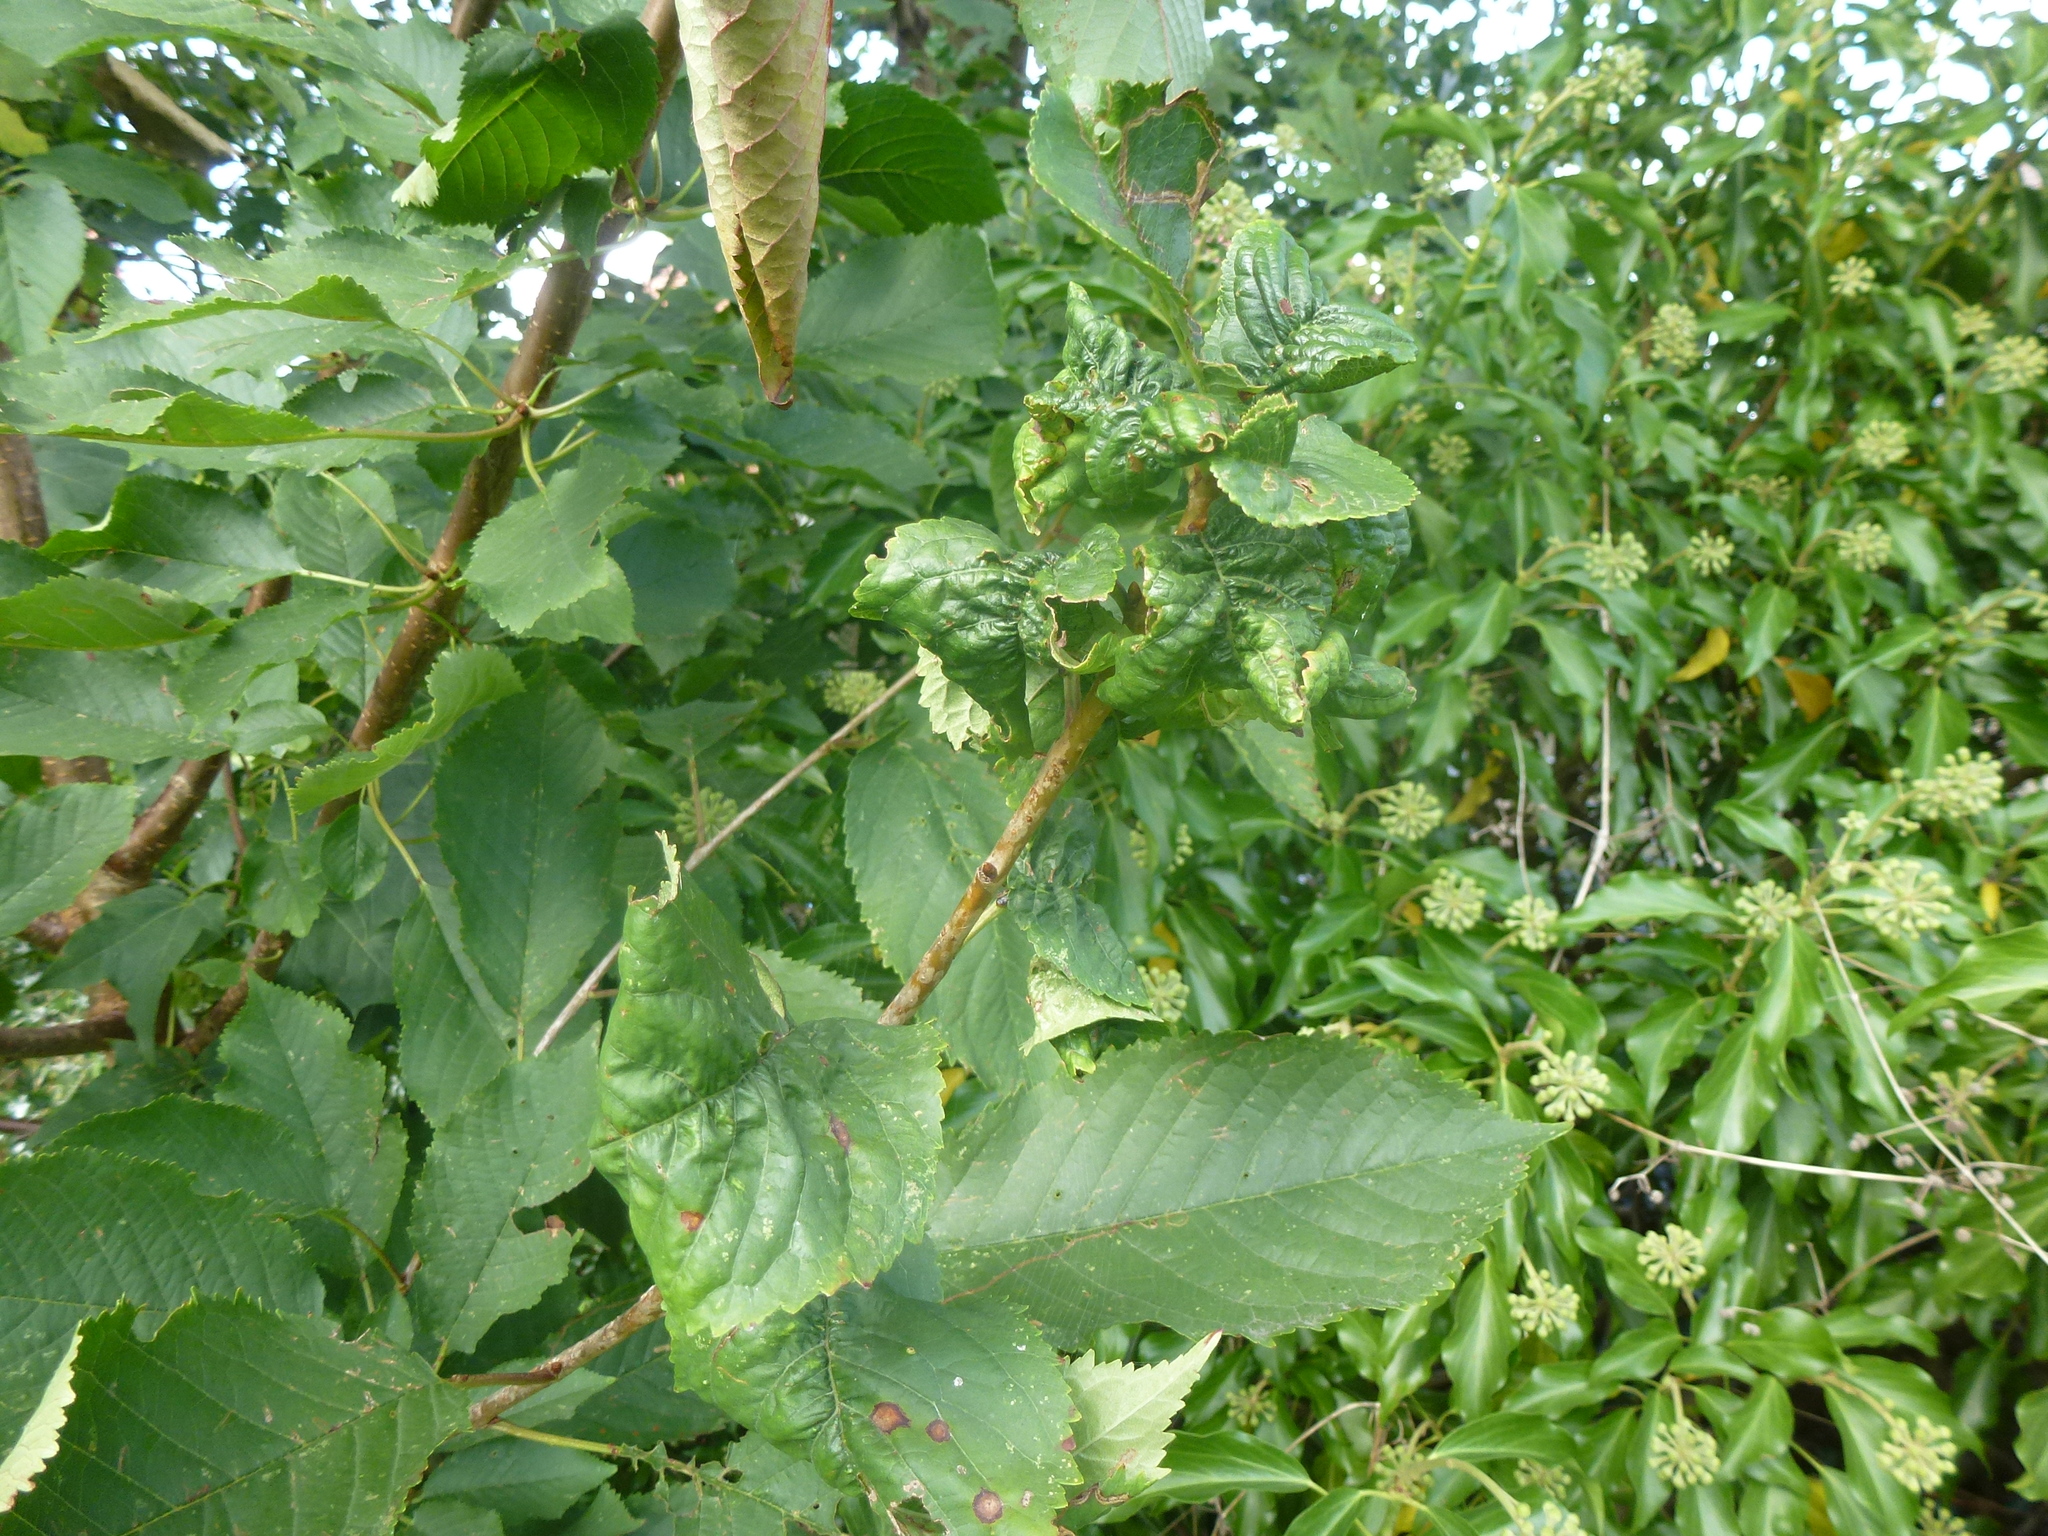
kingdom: Animalia
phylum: Arthropoda
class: Insecta
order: Hemiptera
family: Aphididae
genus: Myzus
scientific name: Myzus cerasi
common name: Black cherry aphid
